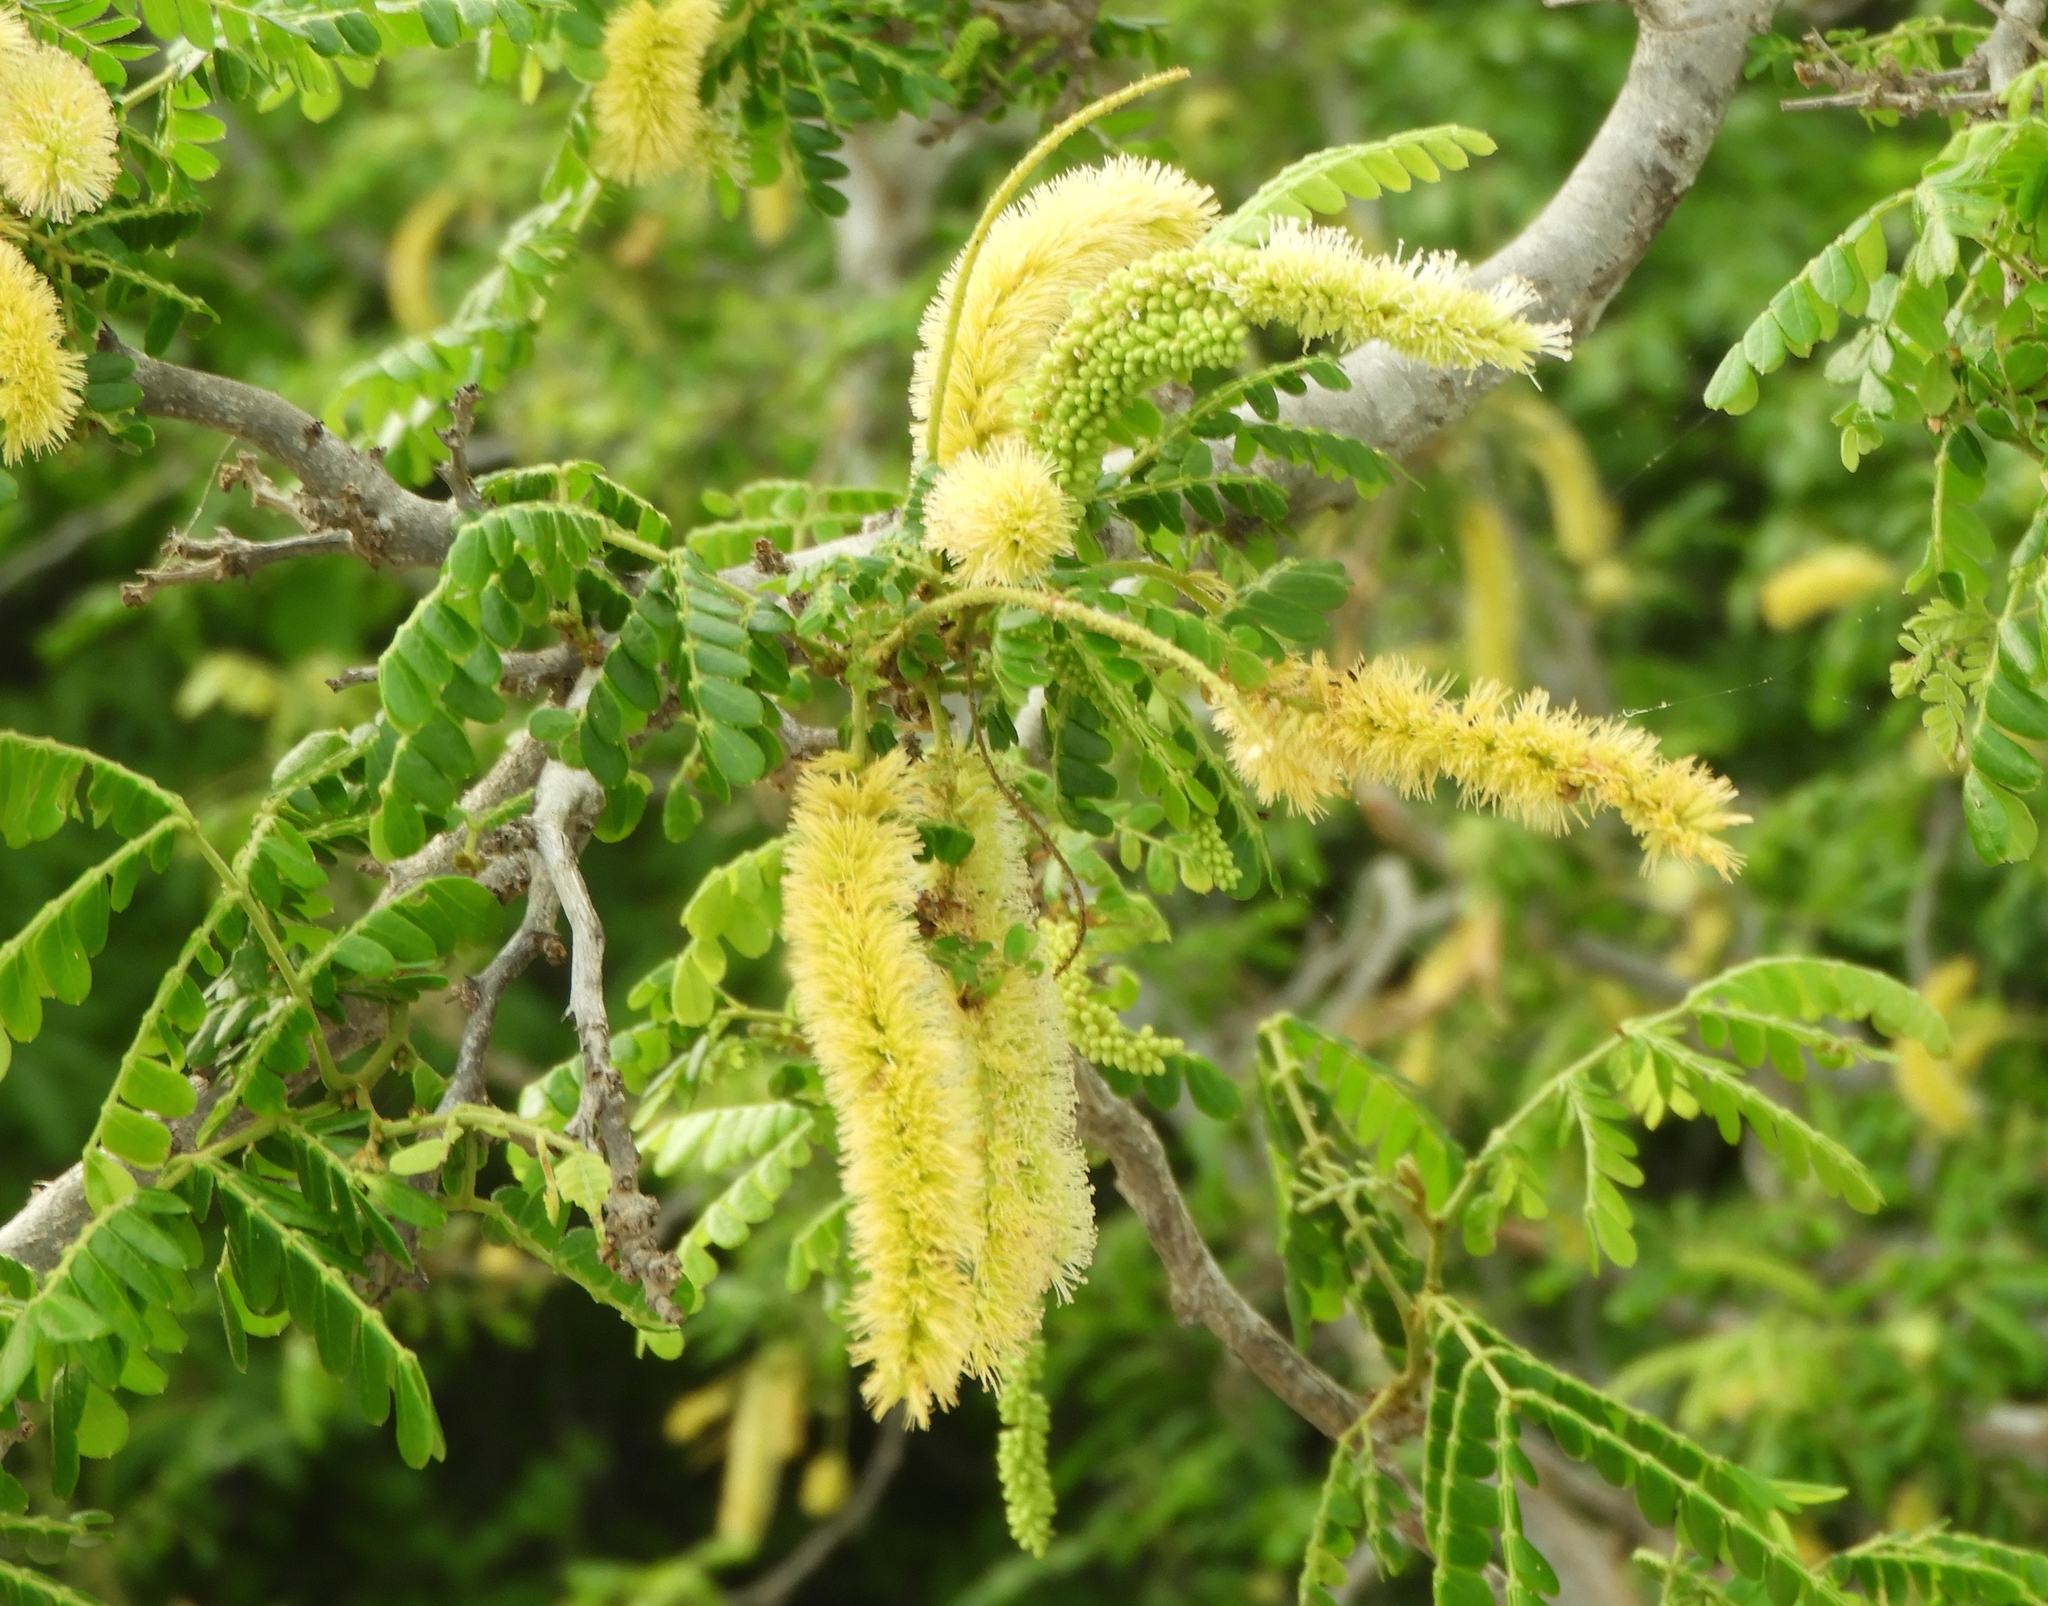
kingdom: Plantae
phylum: Tracheophyta
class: Magnoliopsida
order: Fabales
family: Fabaceae
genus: Pityrocarpa
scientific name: Pityrocarpa obliqua
